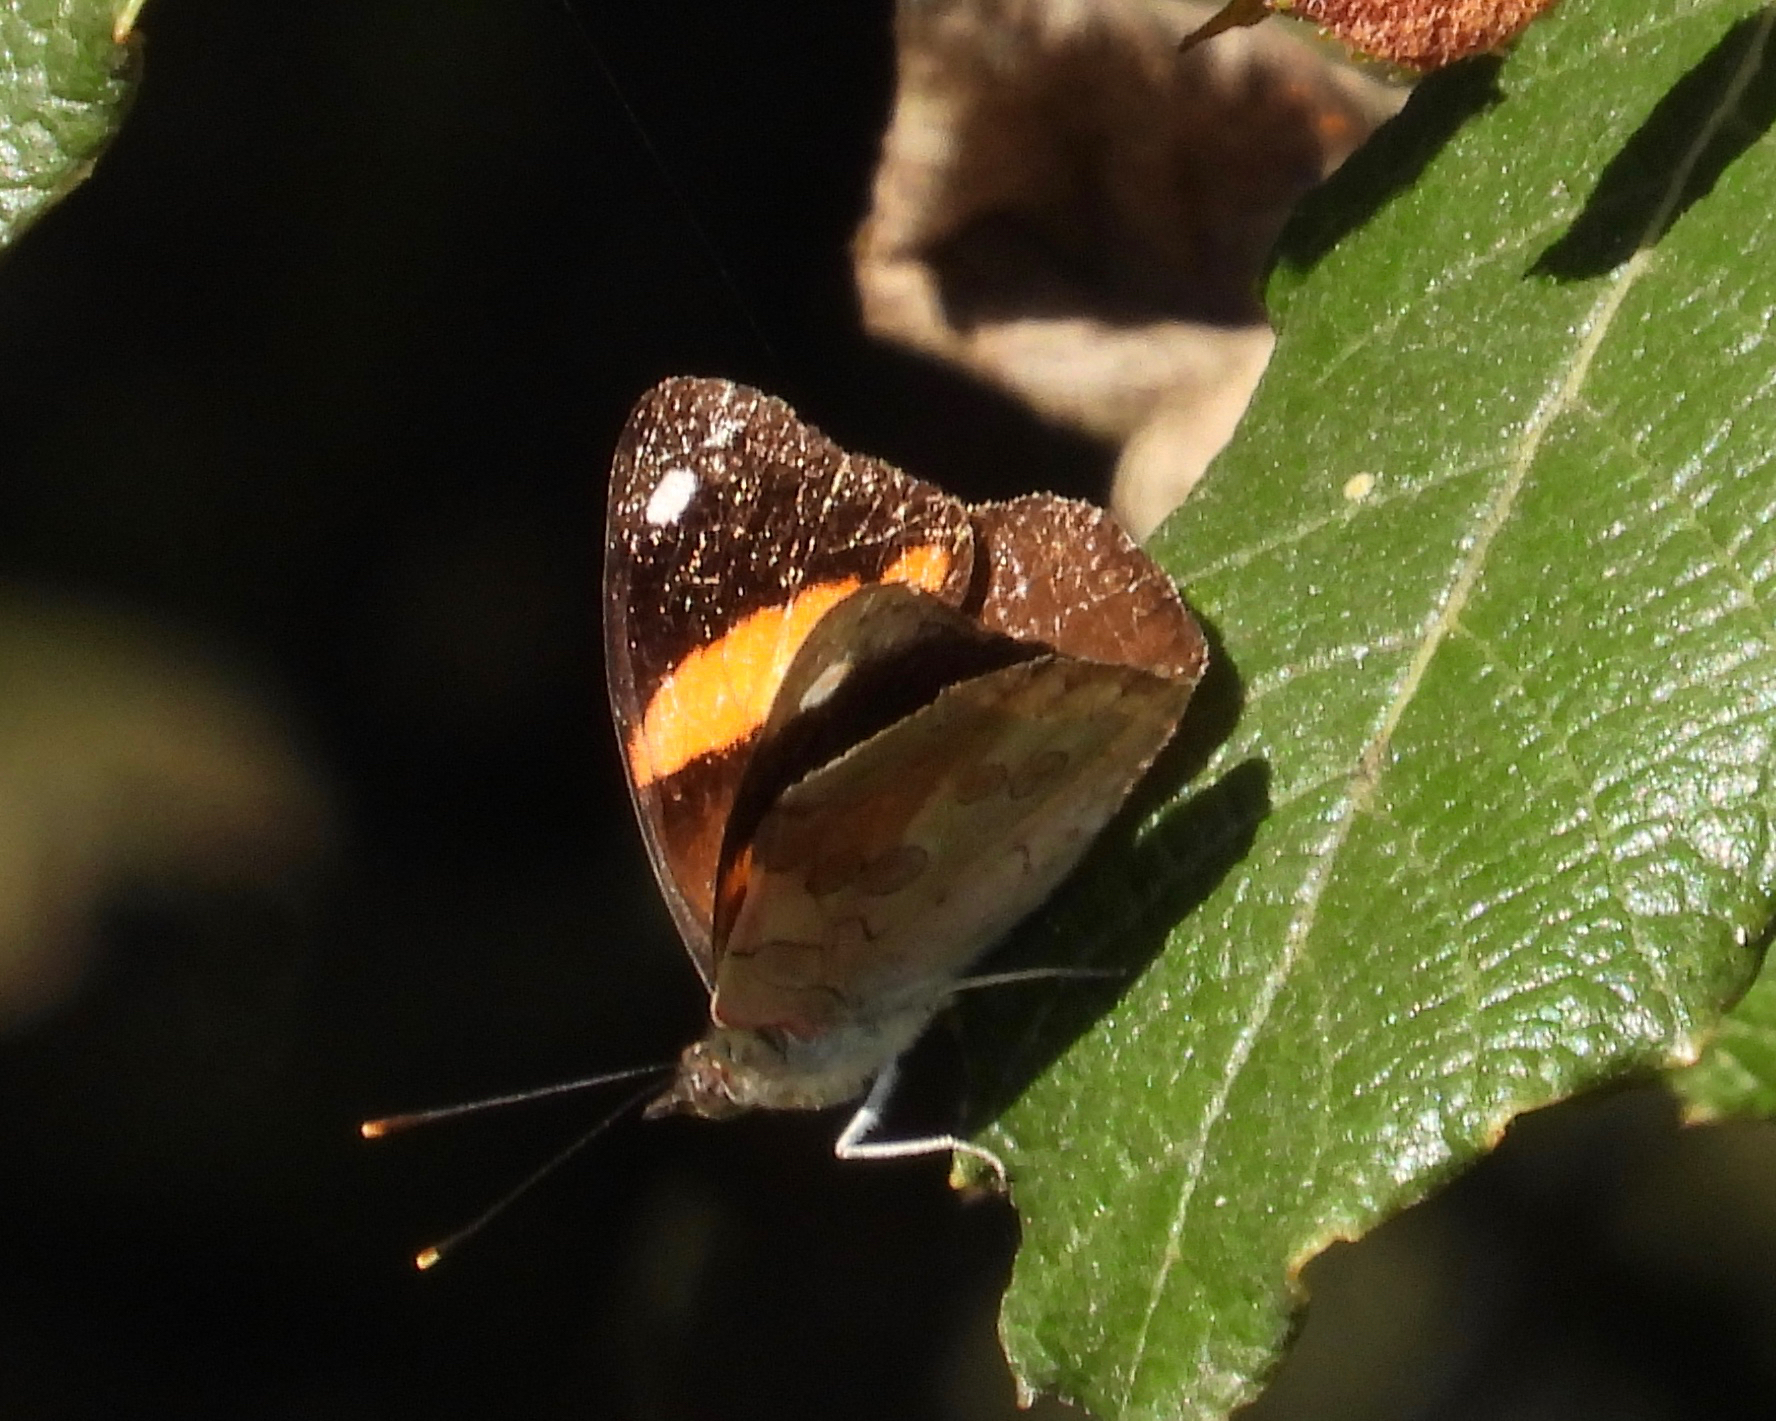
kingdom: Animalia
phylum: Arthropoda
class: Insecta
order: Lepidoptera
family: Nymphalidae
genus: Diaethria
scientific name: Diaethria pandama
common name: Orange-striped eighty-eight
